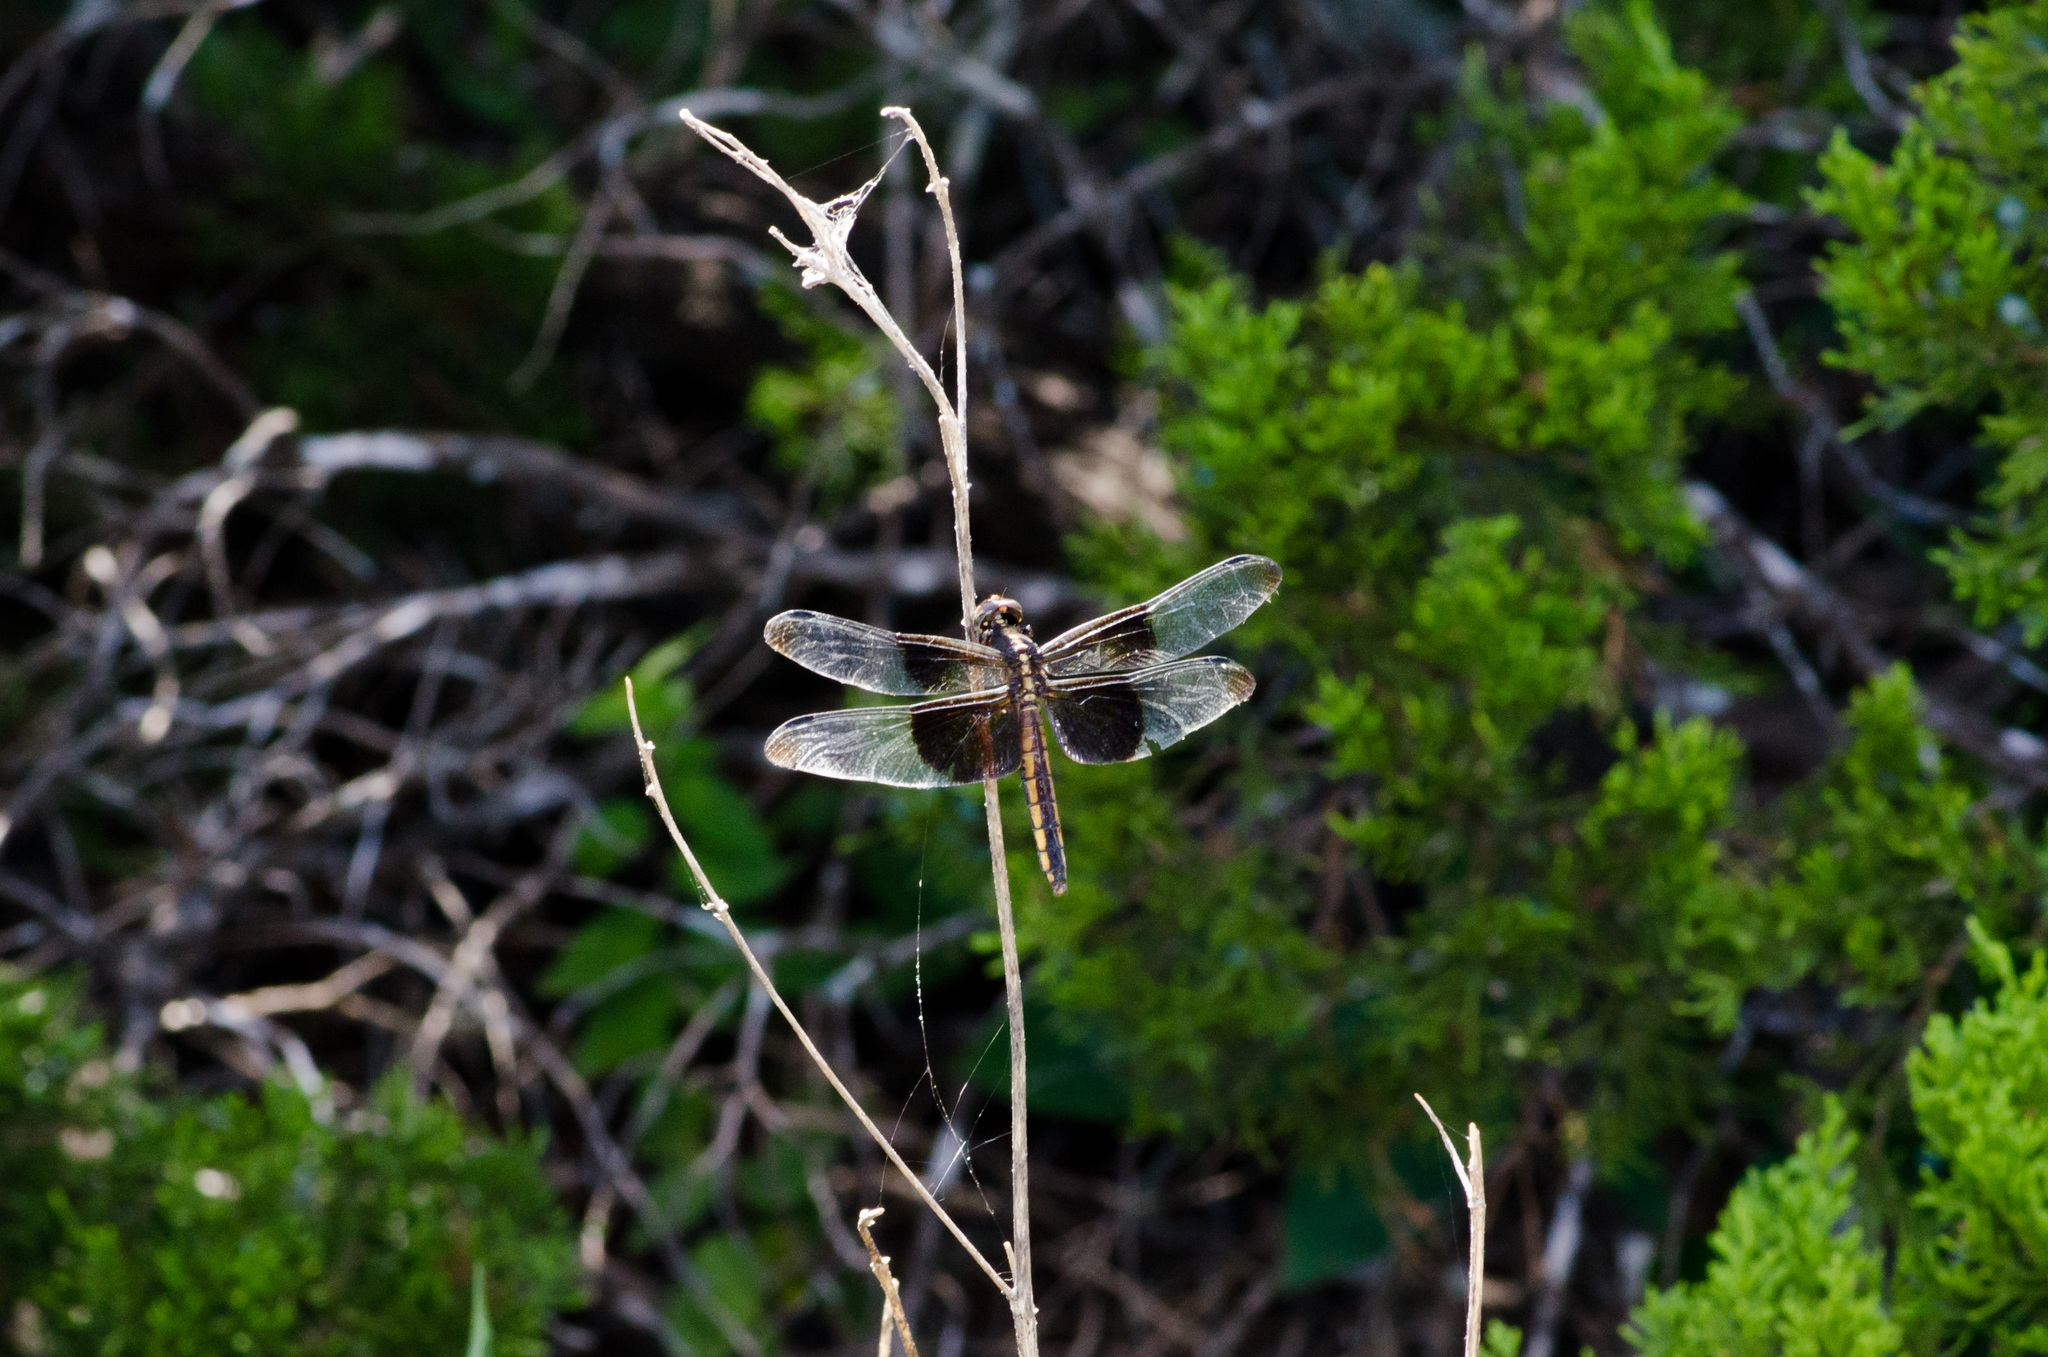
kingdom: Animalia
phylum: Arthropoda
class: Insecta
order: Odonata
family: Libellulidae
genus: Libellula
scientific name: Libellula luctuosa
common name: Widow skimmer
